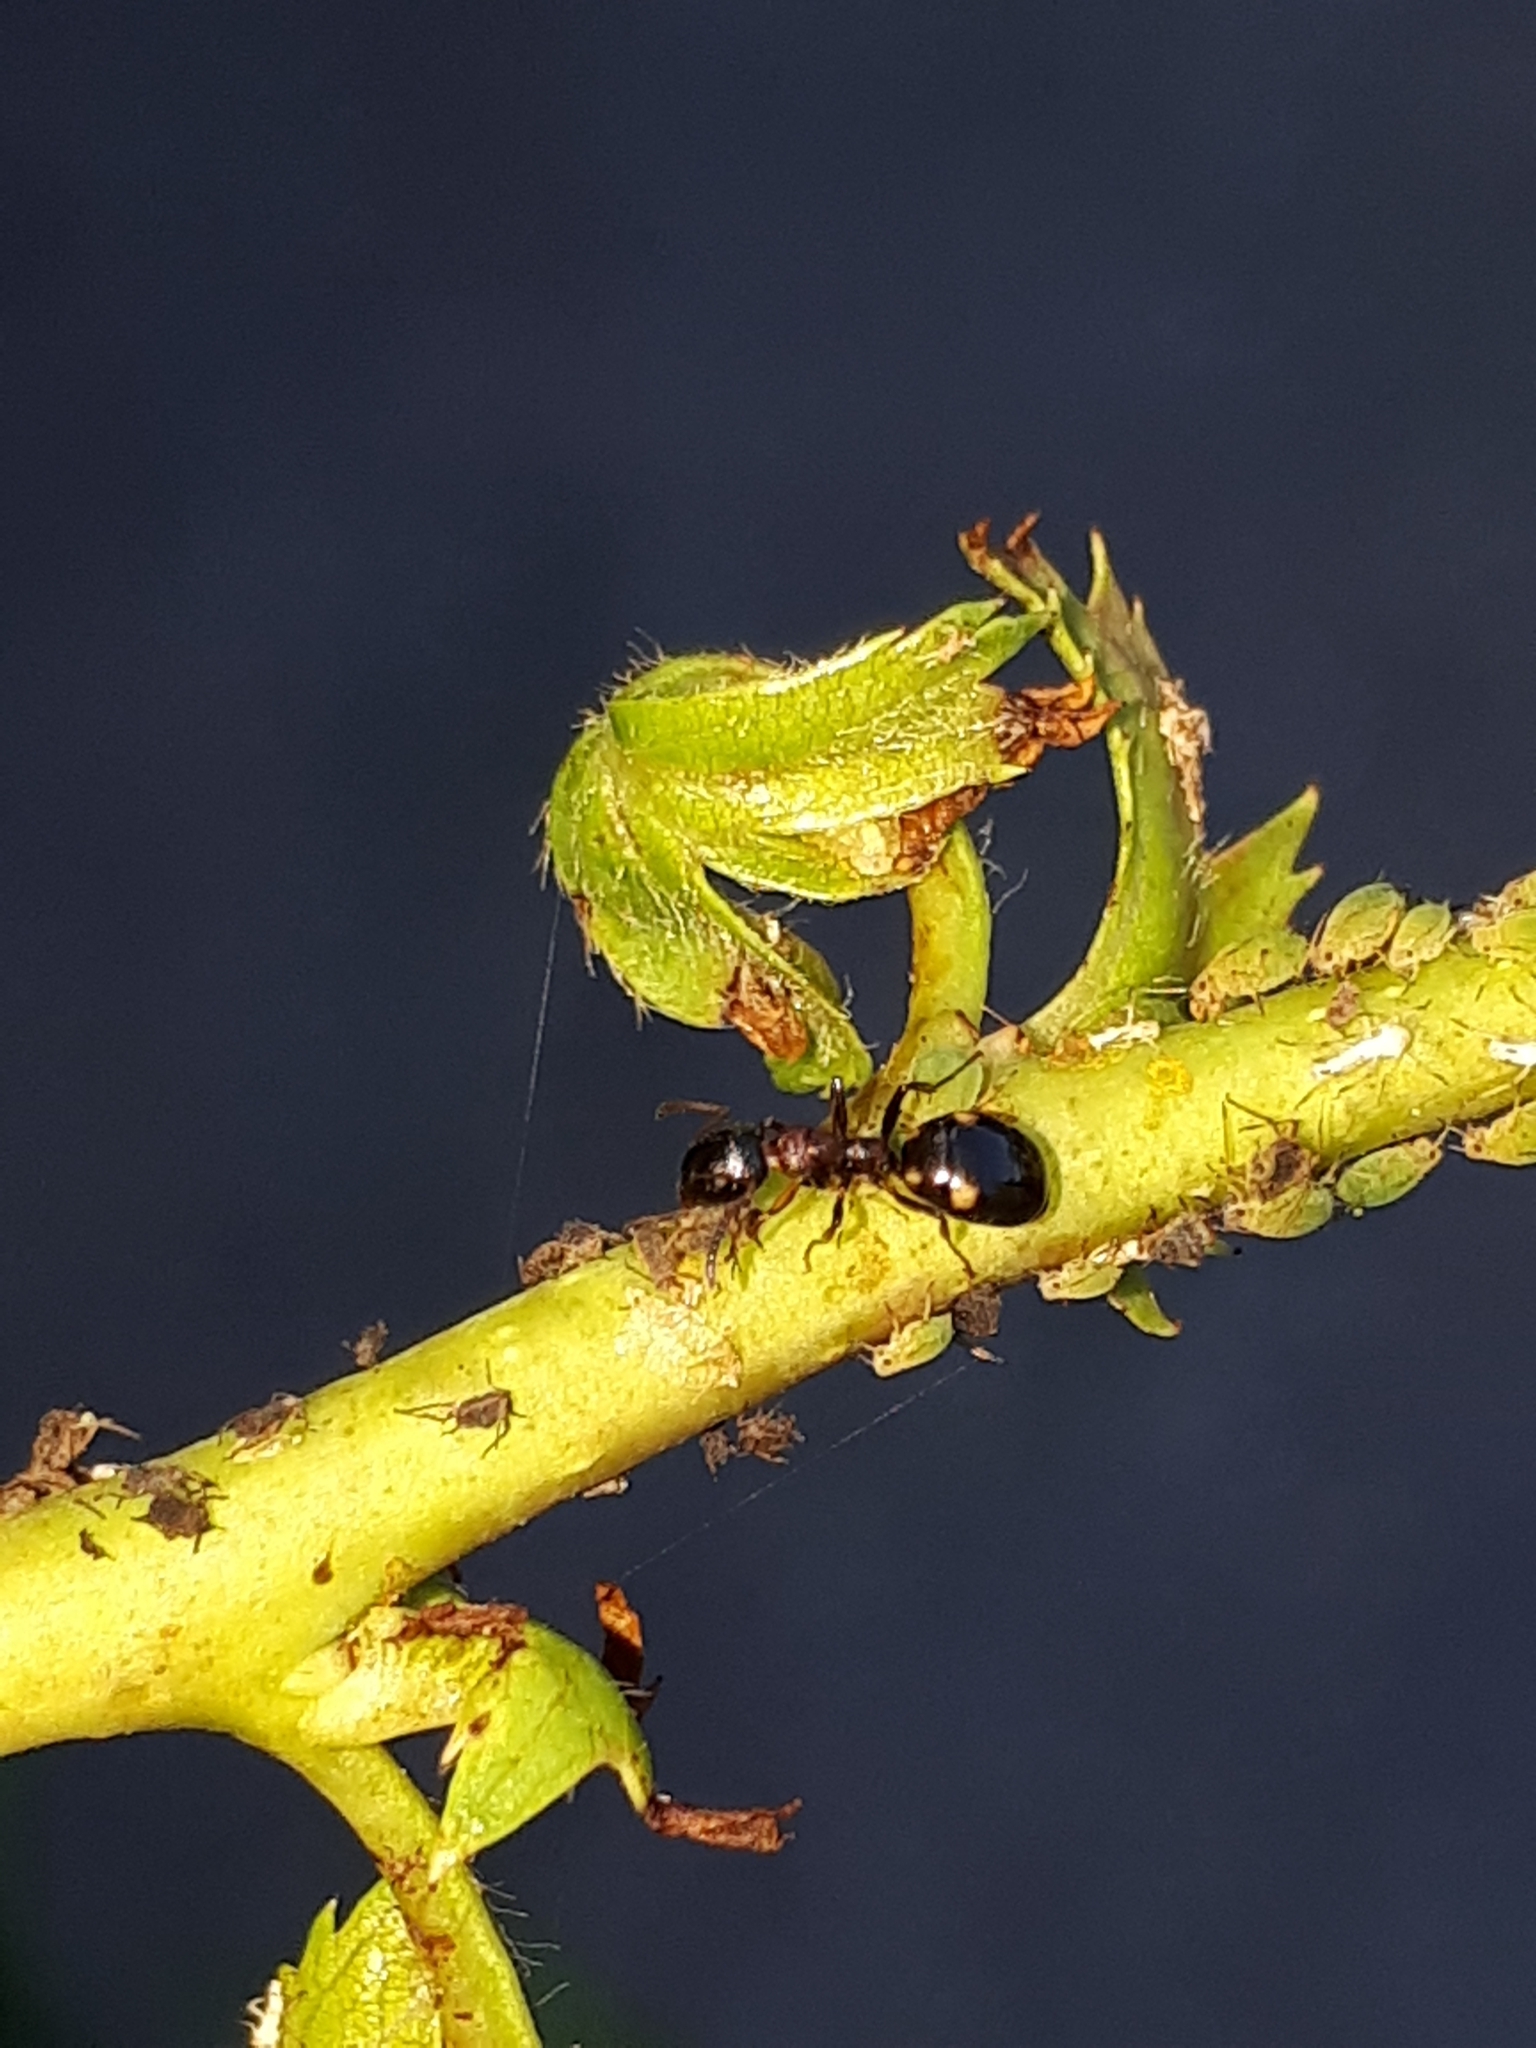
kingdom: Animalia
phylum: Arthropoda
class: Insecta
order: Hymenoptera
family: Formicidae
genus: Dolichoderus
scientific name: Dolichoderus quadripunctatus
